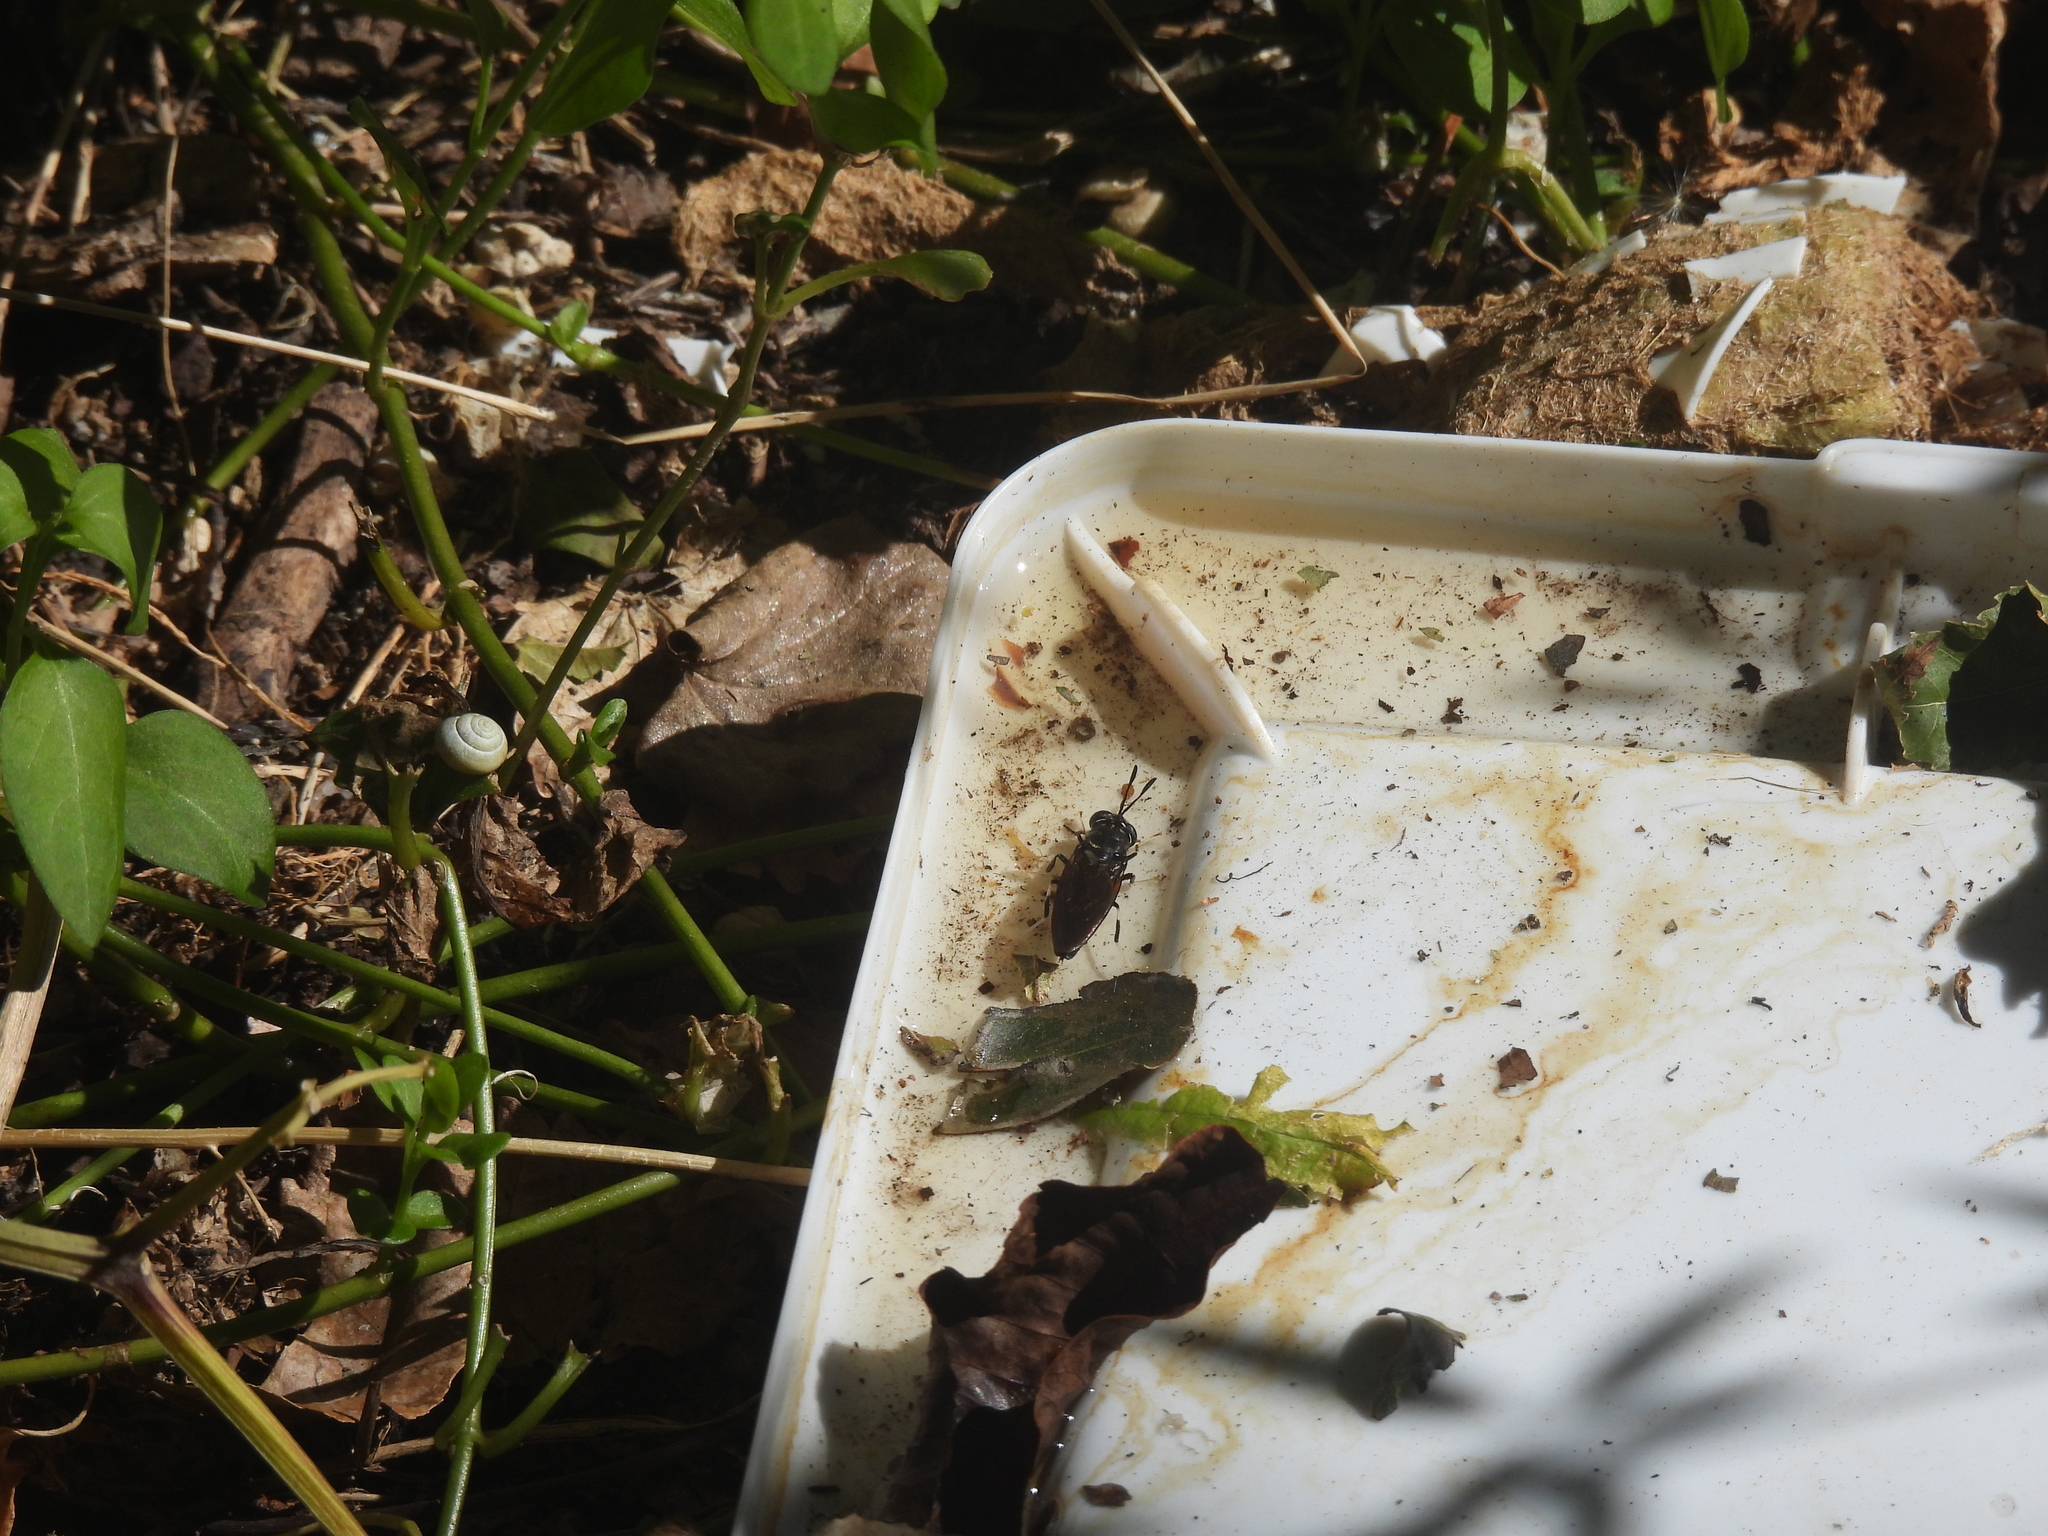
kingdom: Animalia
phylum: Arthropoda
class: Insecta
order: Diptera
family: Stratiomyidae
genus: Hermetia
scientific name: Hermetia illucens
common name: Black soldier fly
